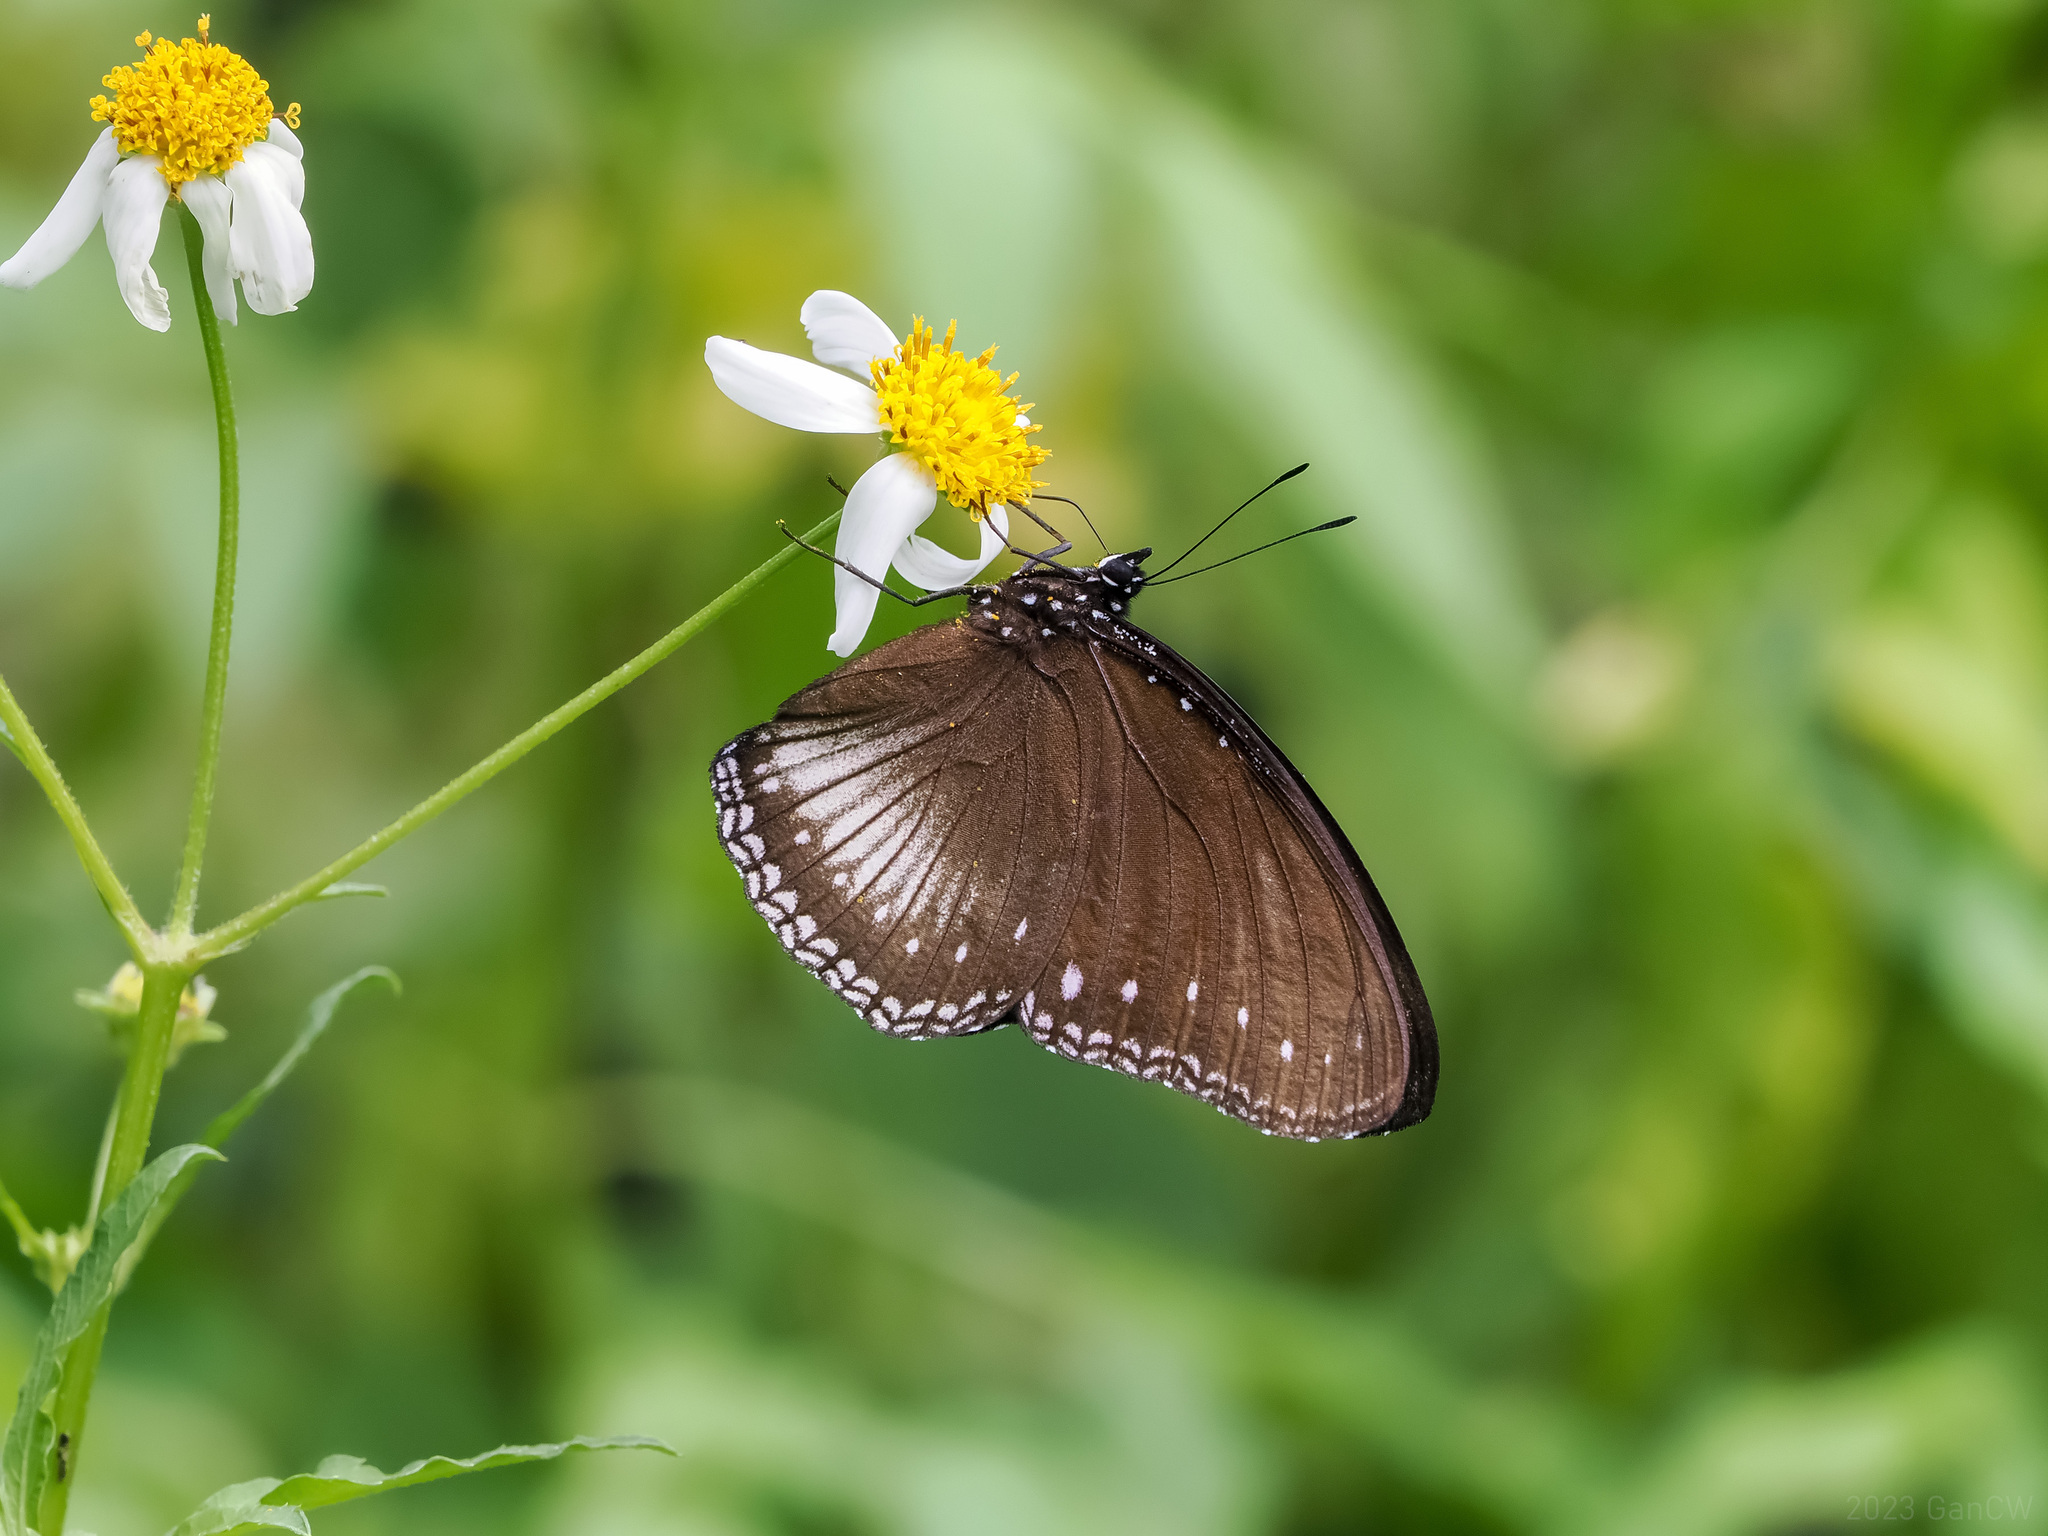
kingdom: Animalia
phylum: Arthropoda
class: Insecta
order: Lepidoptera
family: Nymphalidae
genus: Hypolimnas
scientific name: Hypolimnas anomala
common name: Malayan eggfly
